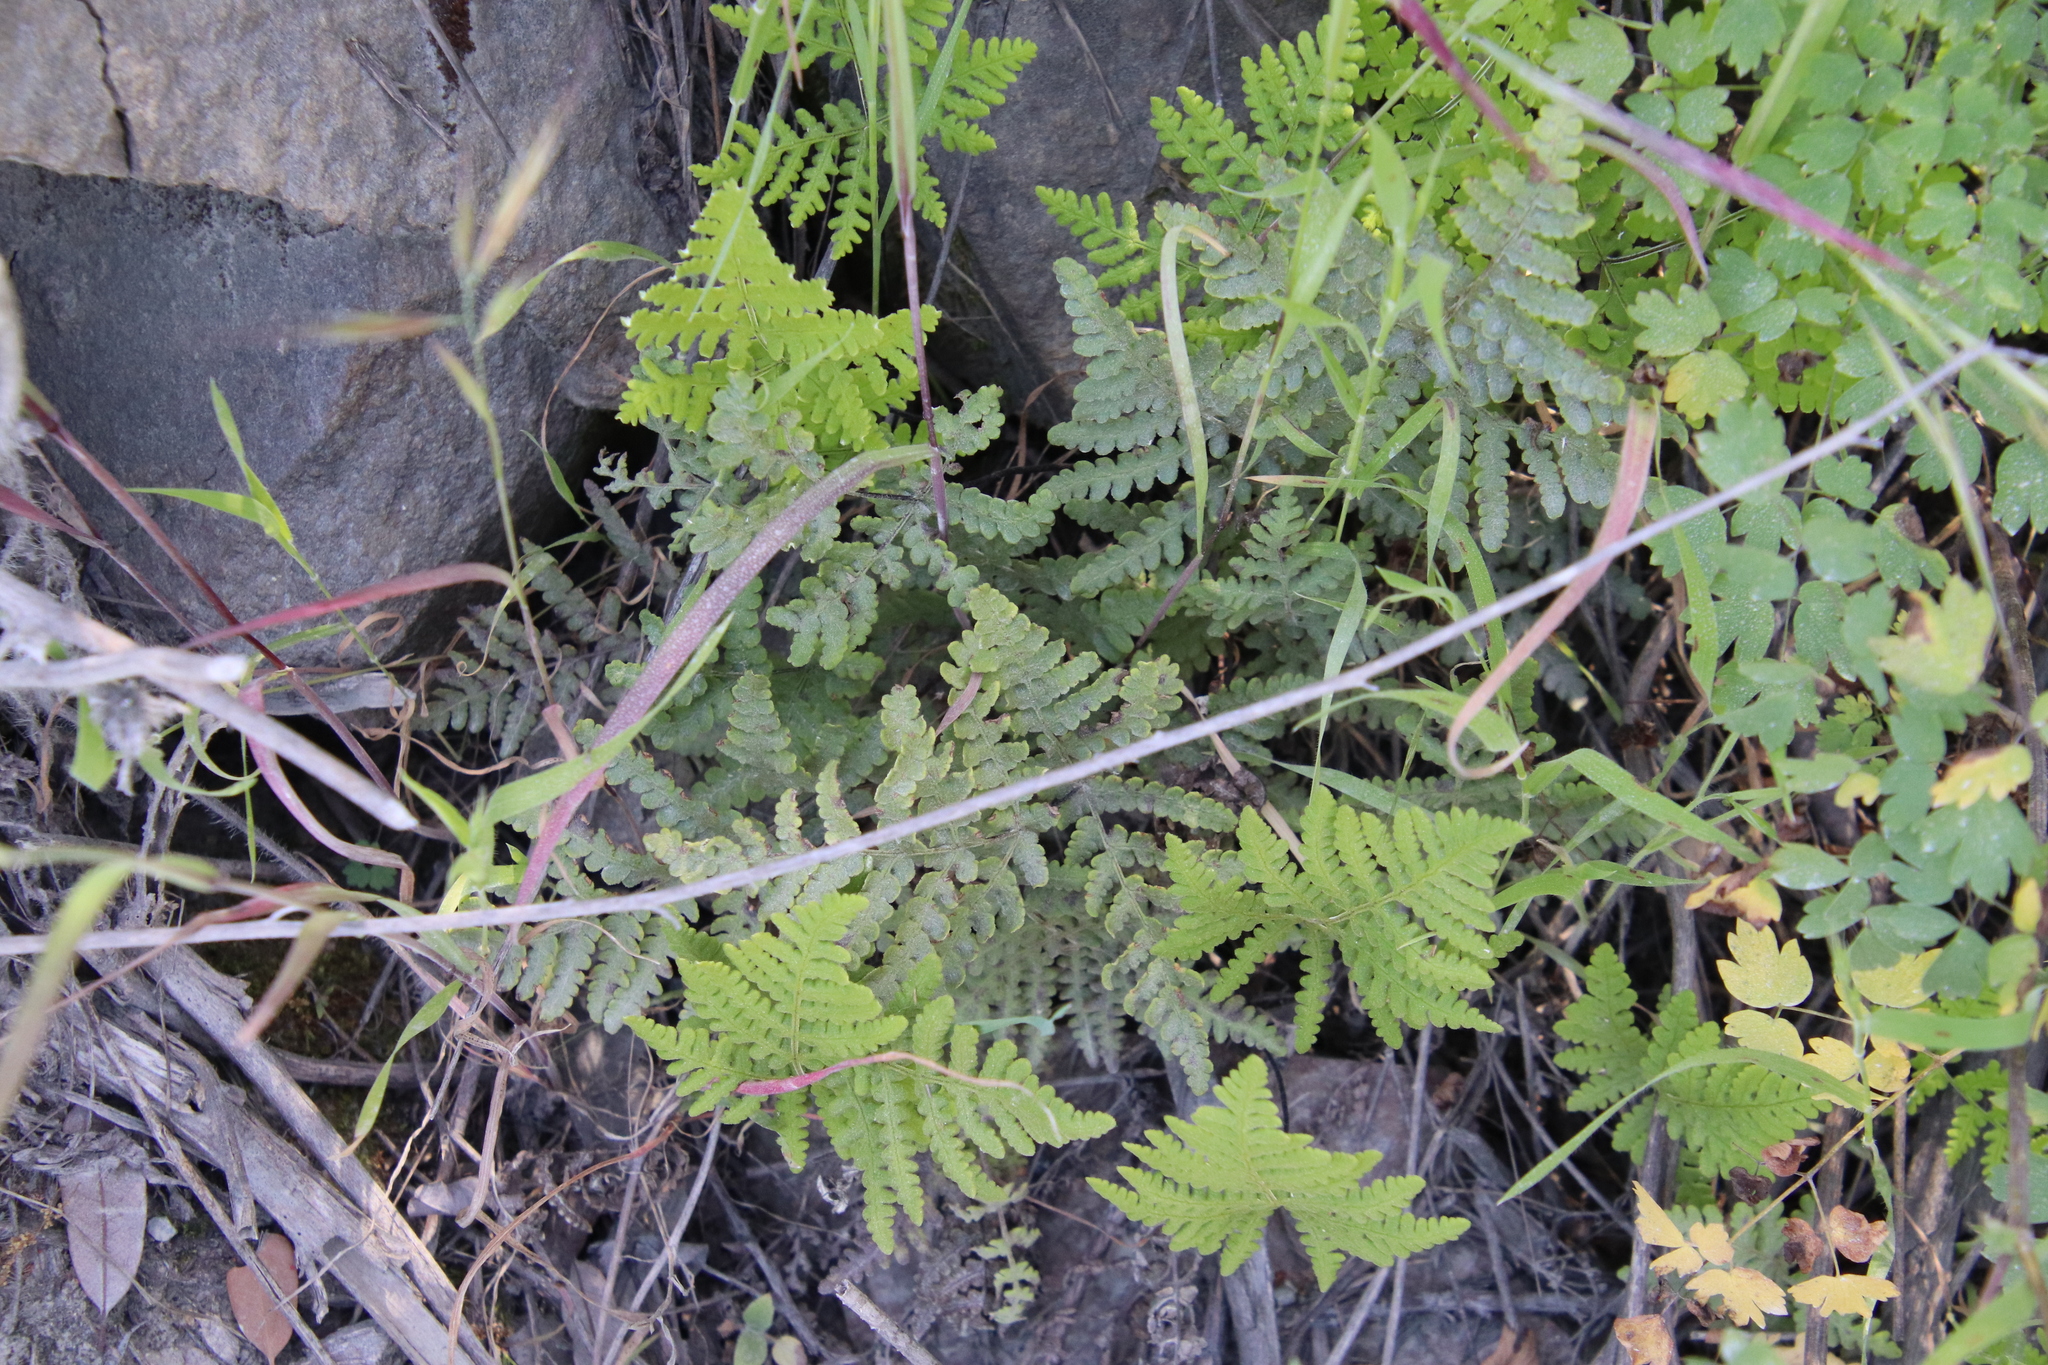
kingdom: Plantae
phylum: Tracheophyta
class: Polypodiopsida
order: Polypodiales
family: Pteridaceae
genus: Pentagramma
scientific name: Pentagramma glanduloviscida
